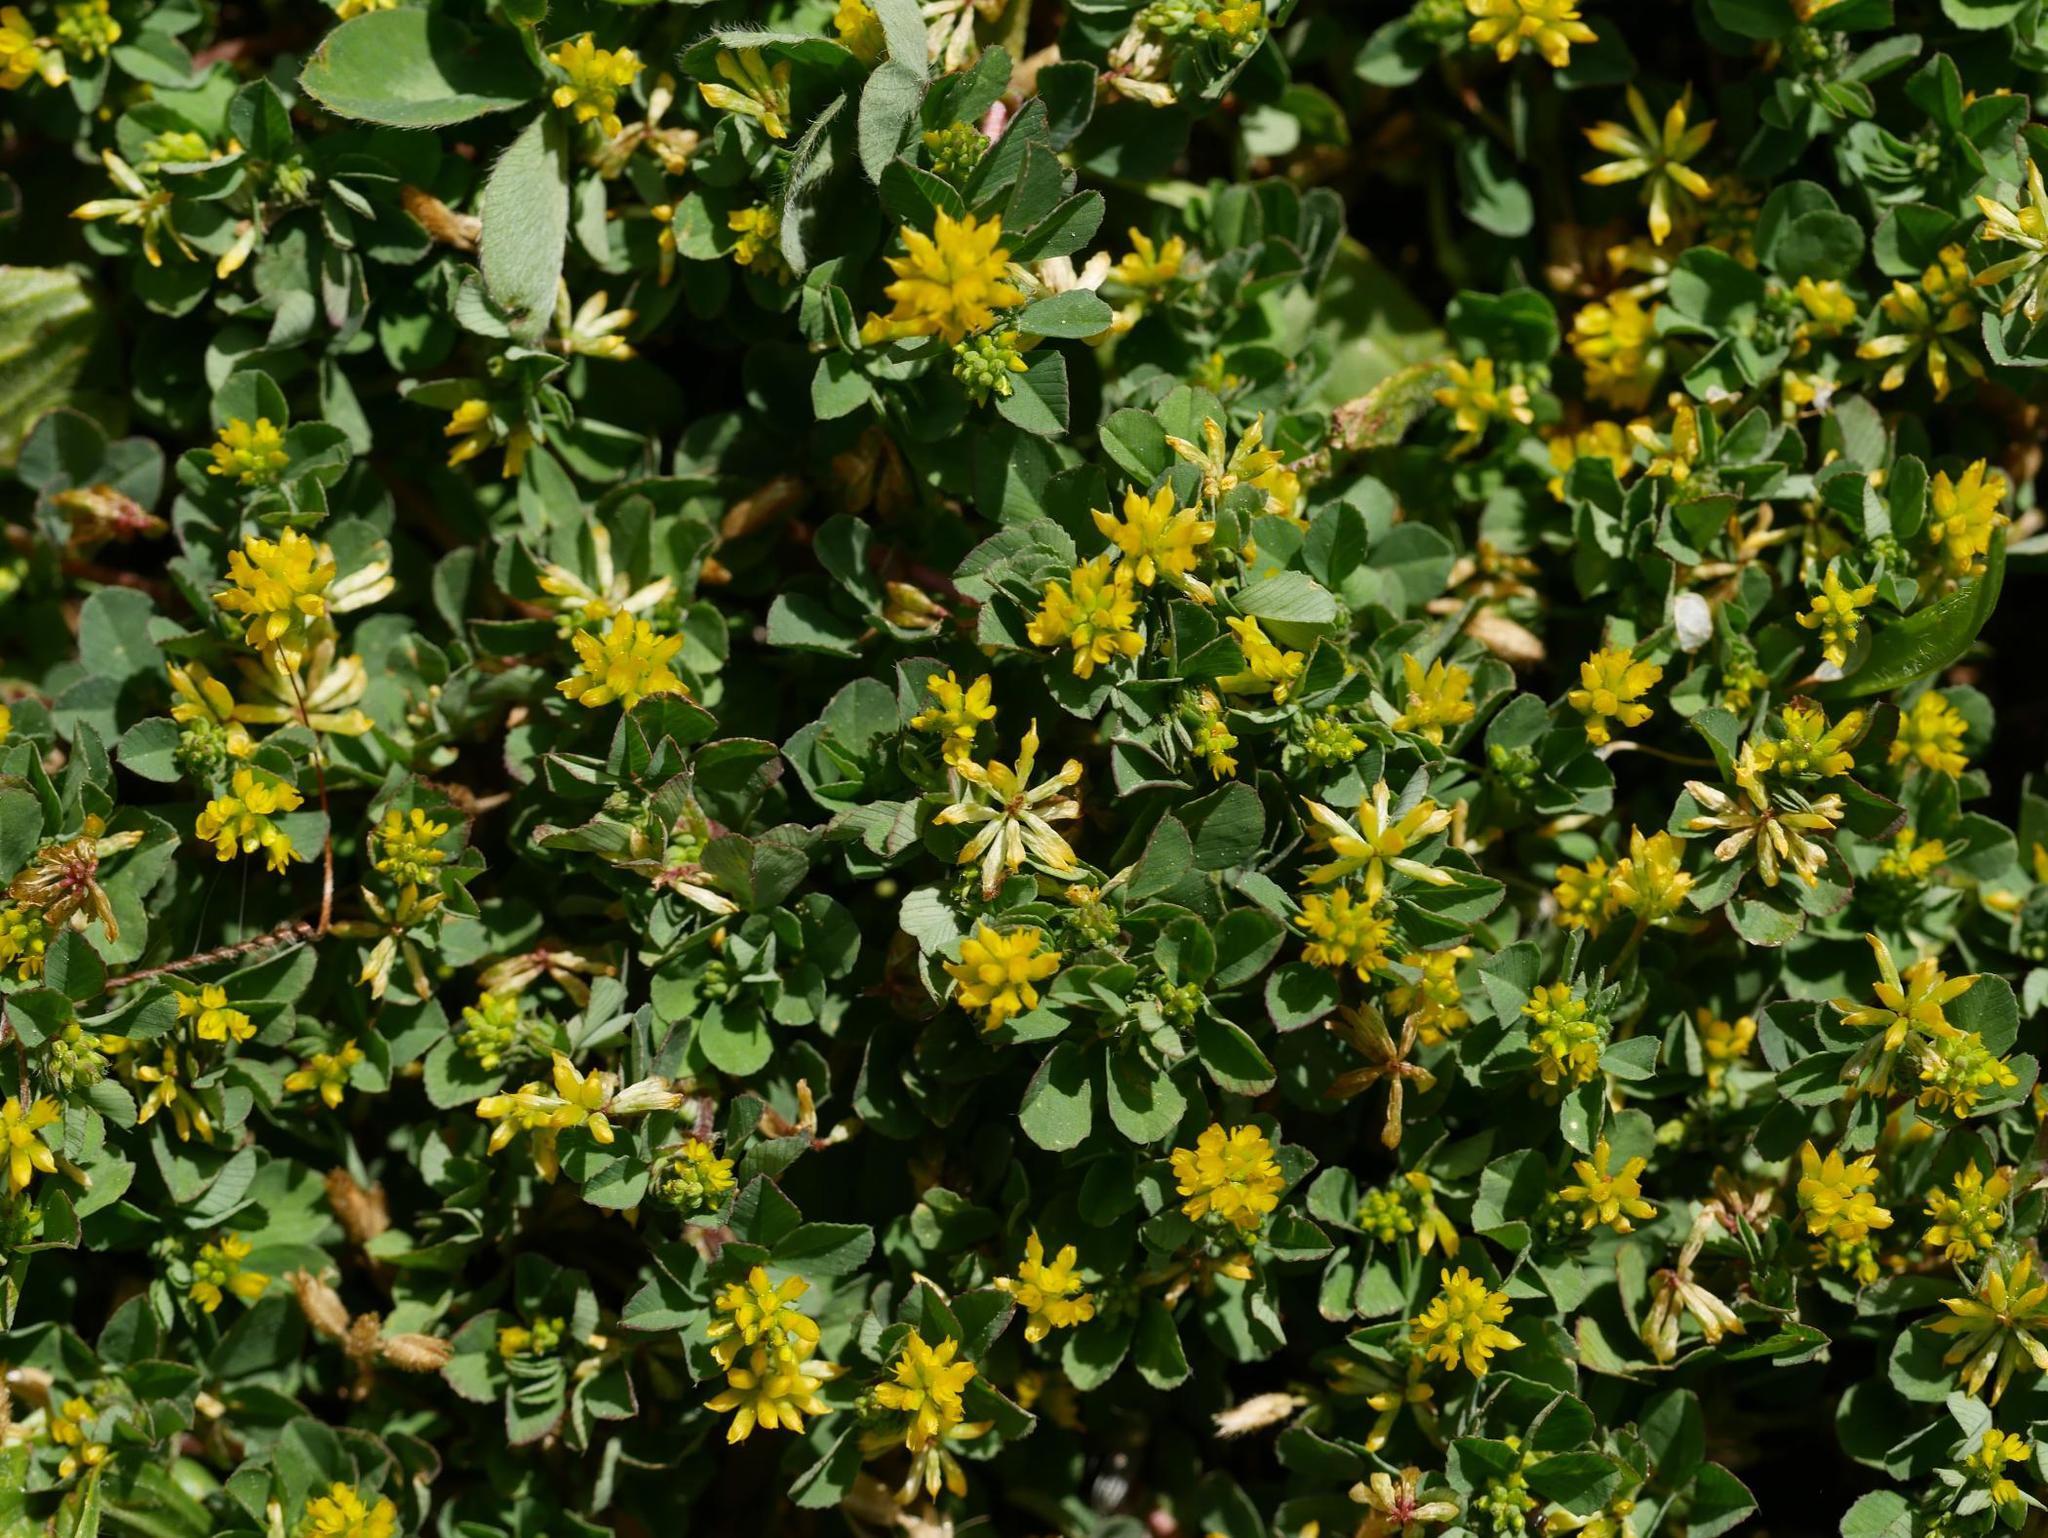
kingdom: Plantae
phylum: Tracheophyta
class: Magnoliopsida
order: Fabales
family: Fabaceae
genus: Trifolium
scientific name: Trifolium dubium
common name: Suckling clover
